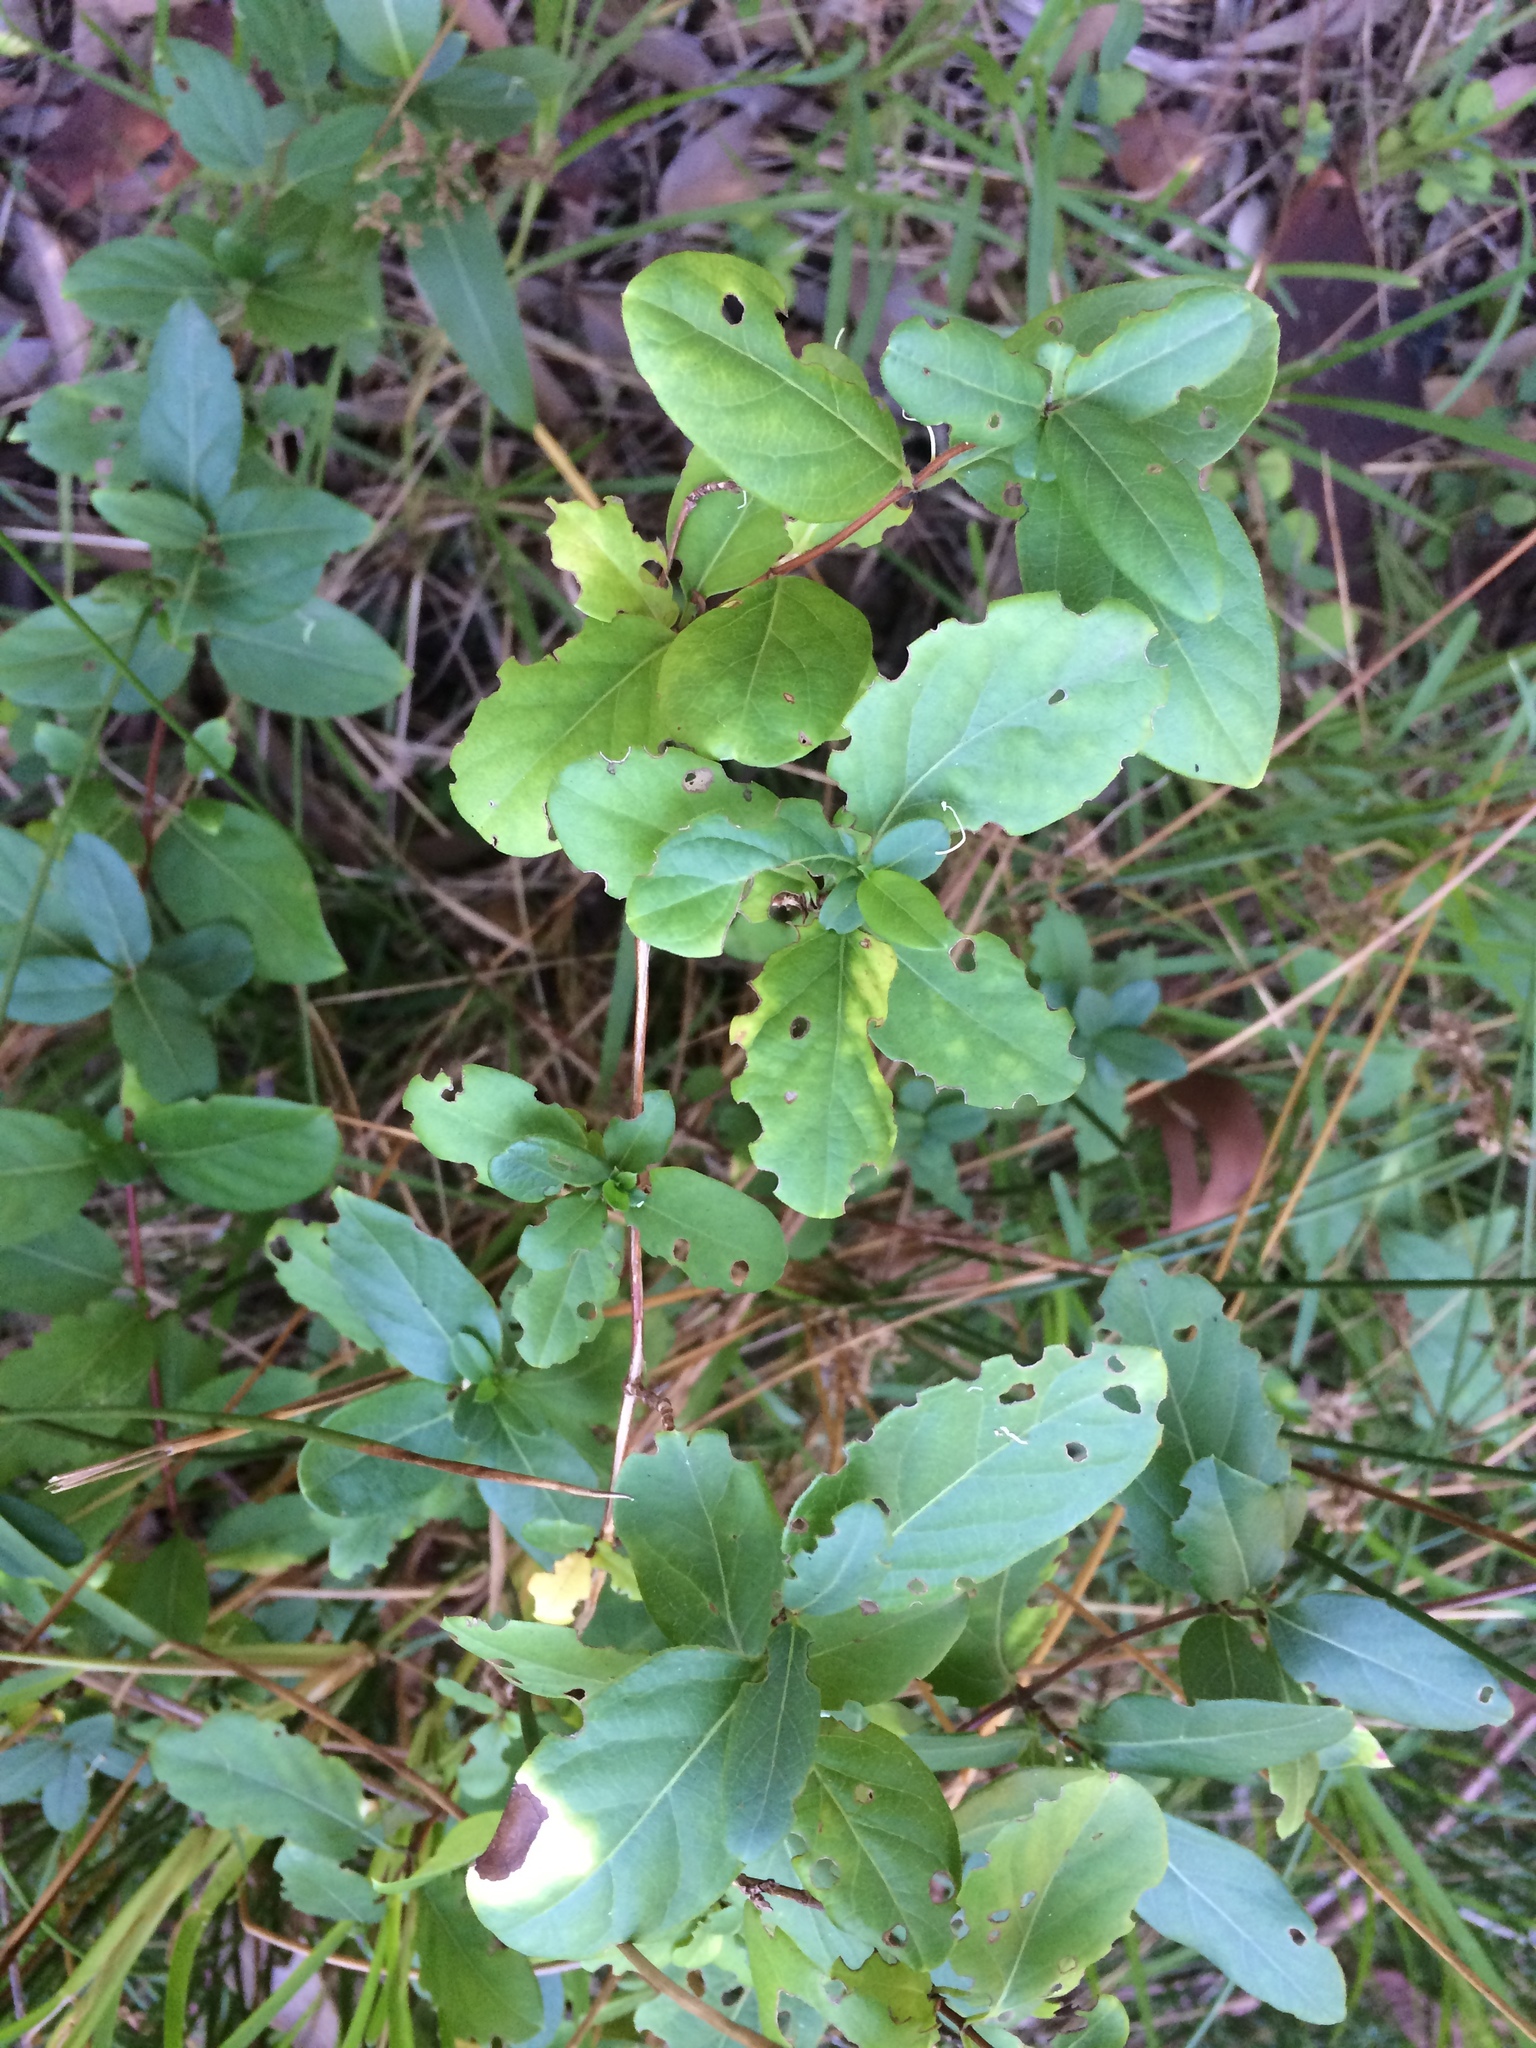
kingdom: Plantae
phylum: Tracheophyta
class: Magnoliopsida
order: Dipsacales
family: Caprifoliaceae
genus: Lonicera
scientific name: Lonicera japonica
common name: Japanese honeysuckle
